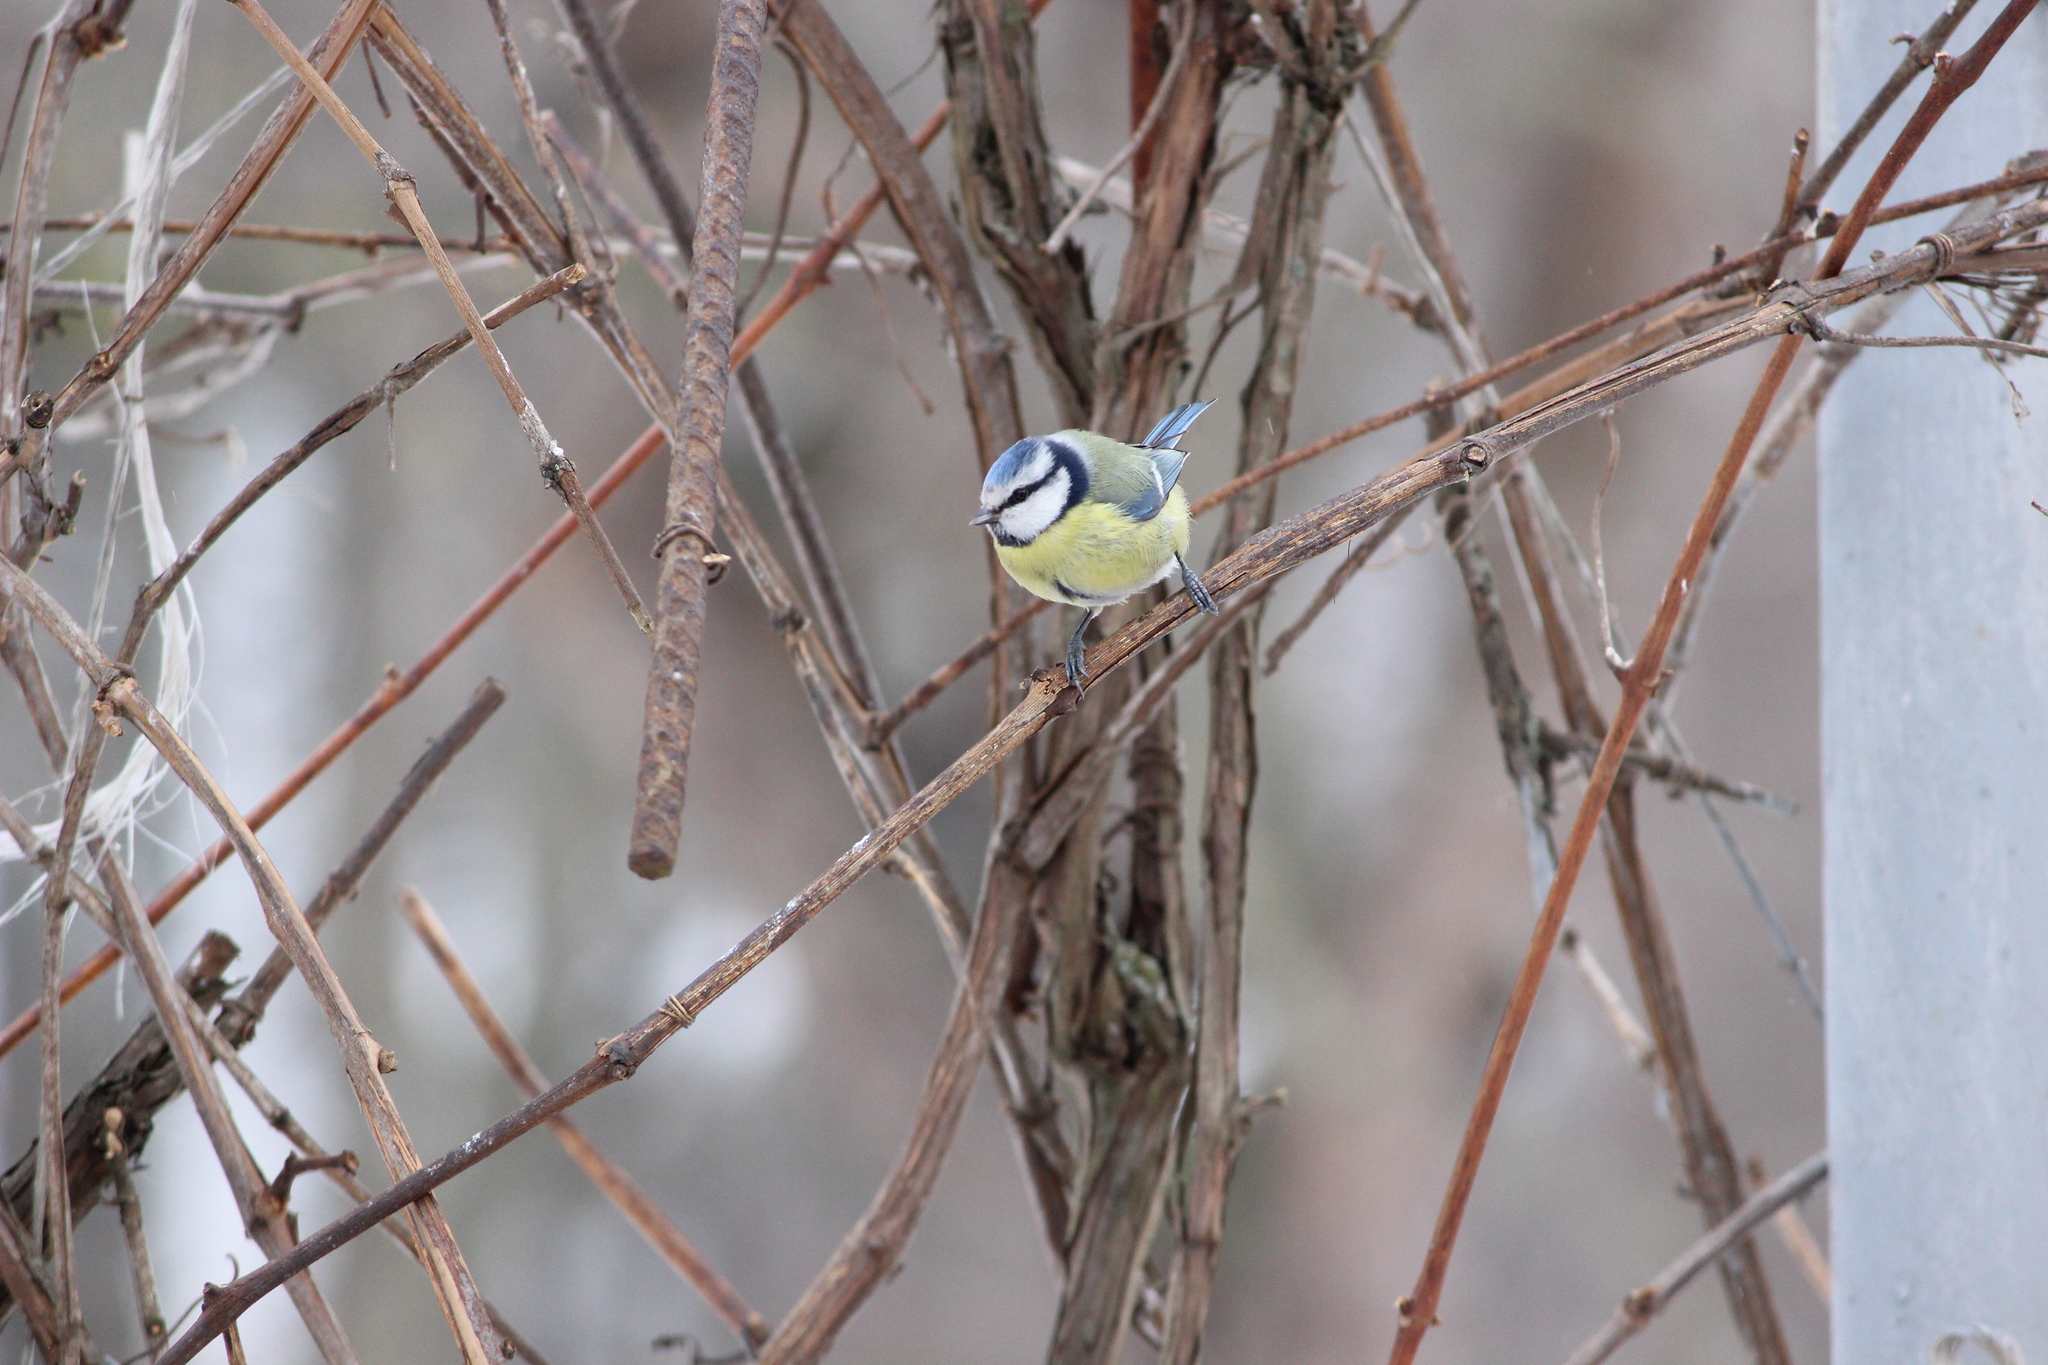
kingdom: Animalia
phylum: Chordata
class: Aves
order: Passeriformes
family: Paridae
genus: Cyanistes
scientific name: Cyanistes caeruleus
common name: Eurasian blue tit
